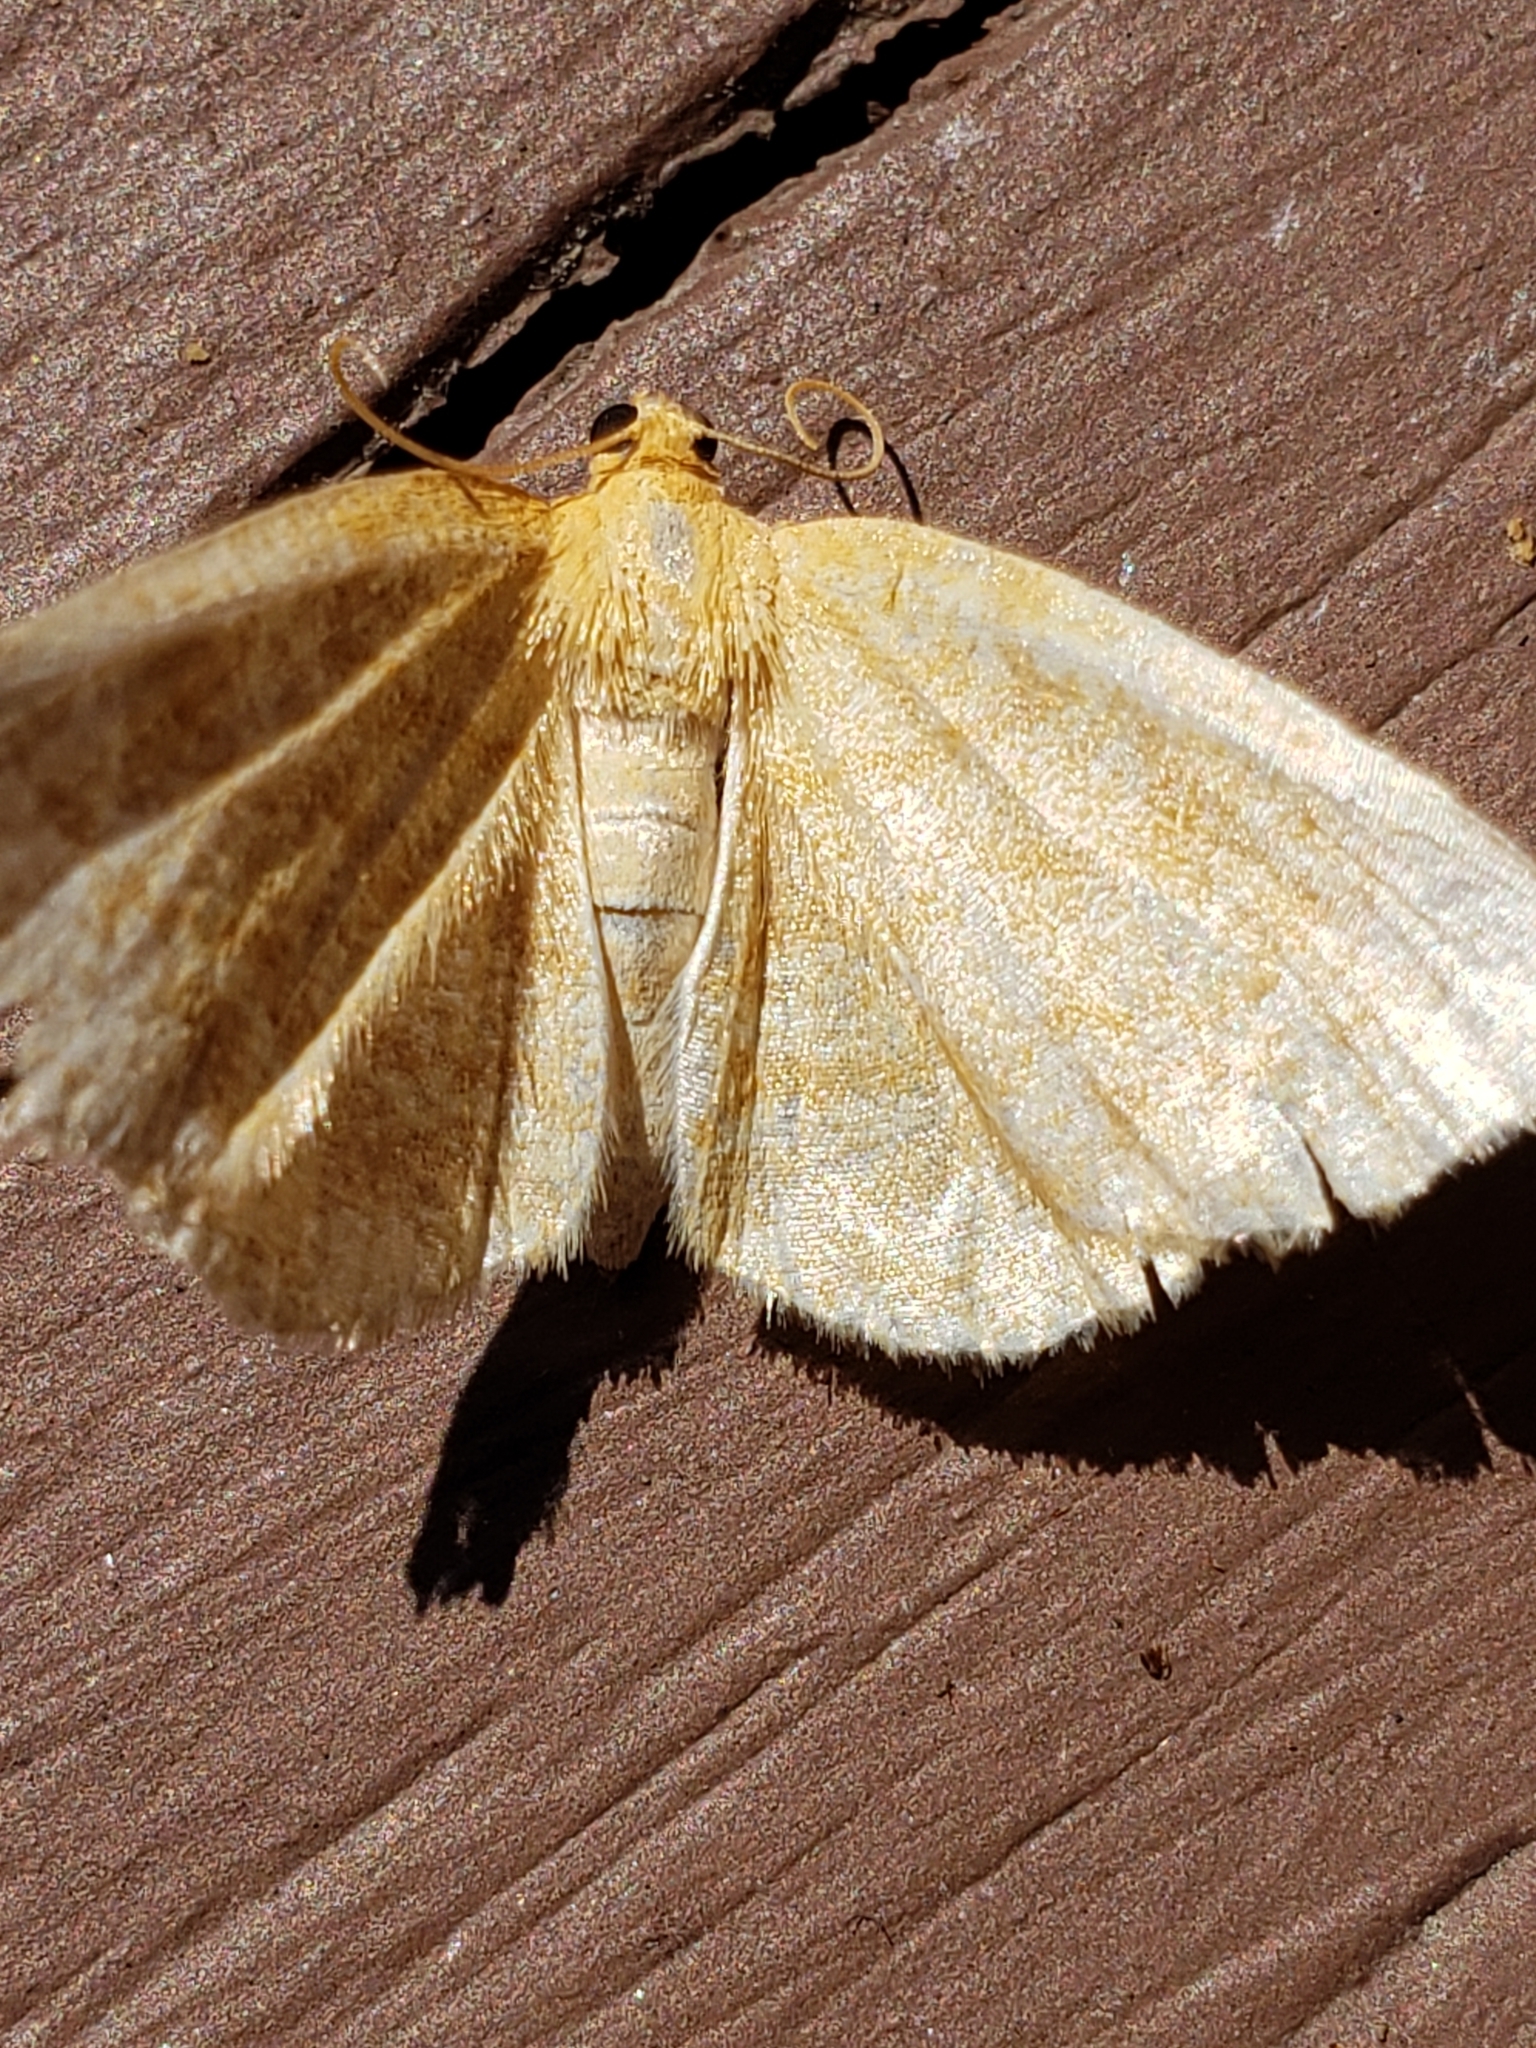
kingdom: Animalia
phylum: Arthropoda
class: Insecta
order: Lepidoptera
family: Geometridae
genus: Gueneria
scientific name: Gueneria similaria
